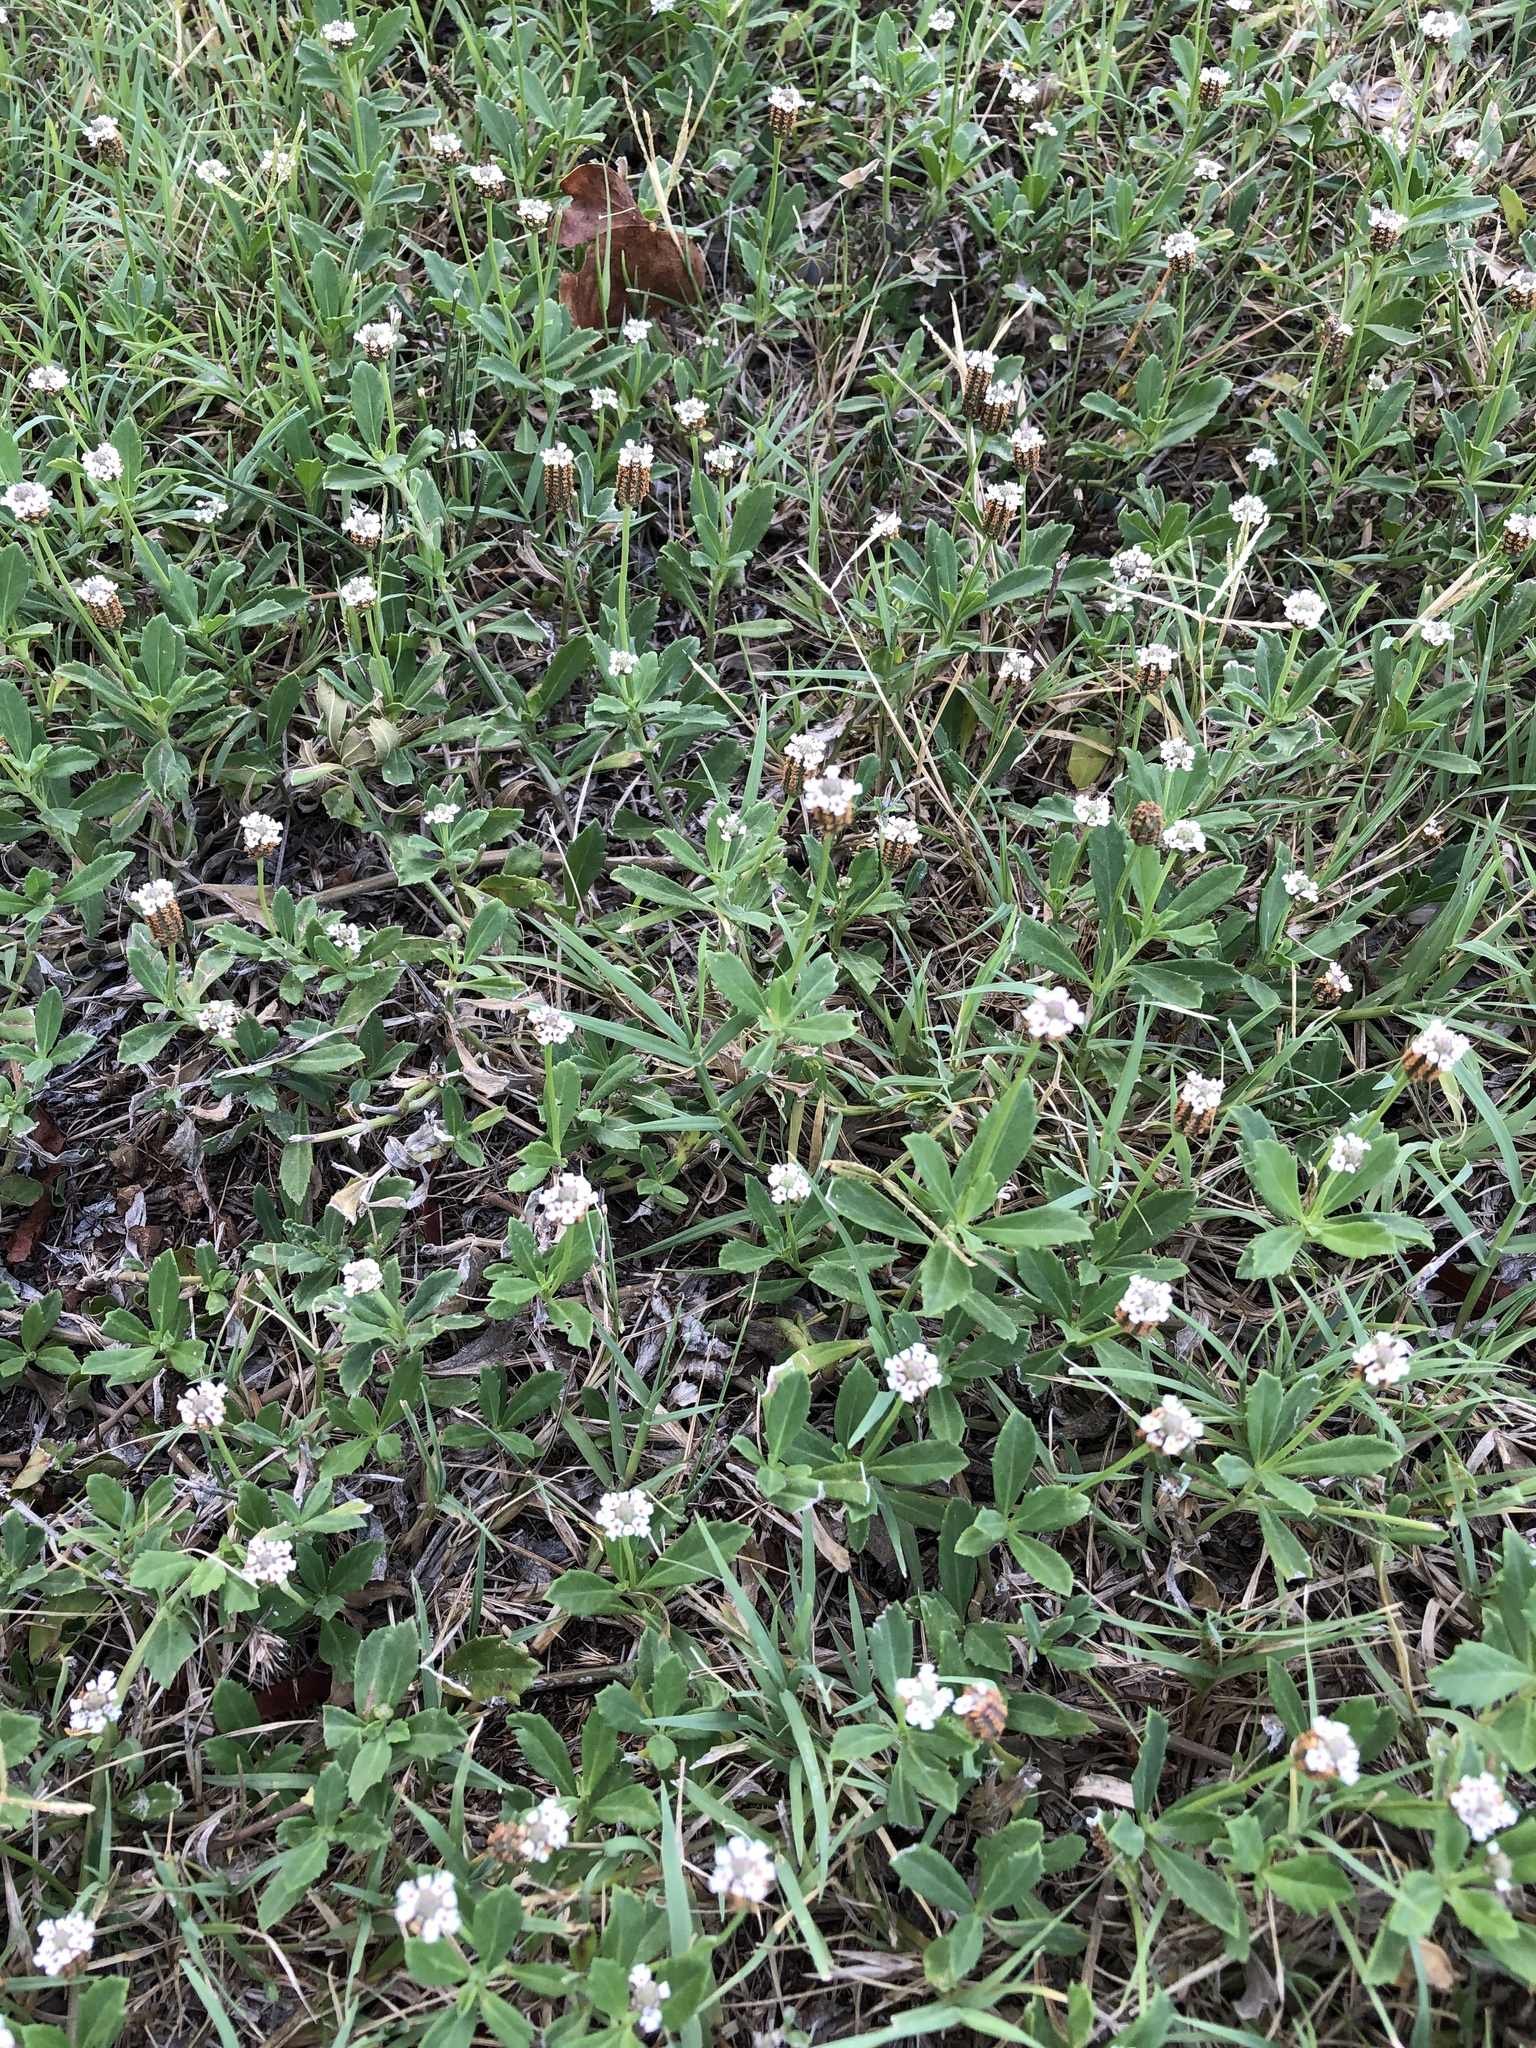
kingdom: Plantae
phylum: Tracheophyta
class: Magnoliopsida
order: Lamiales
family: Verbenaceae
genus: Phyla
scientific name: Phyla nodiflora
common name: Frogfruit
